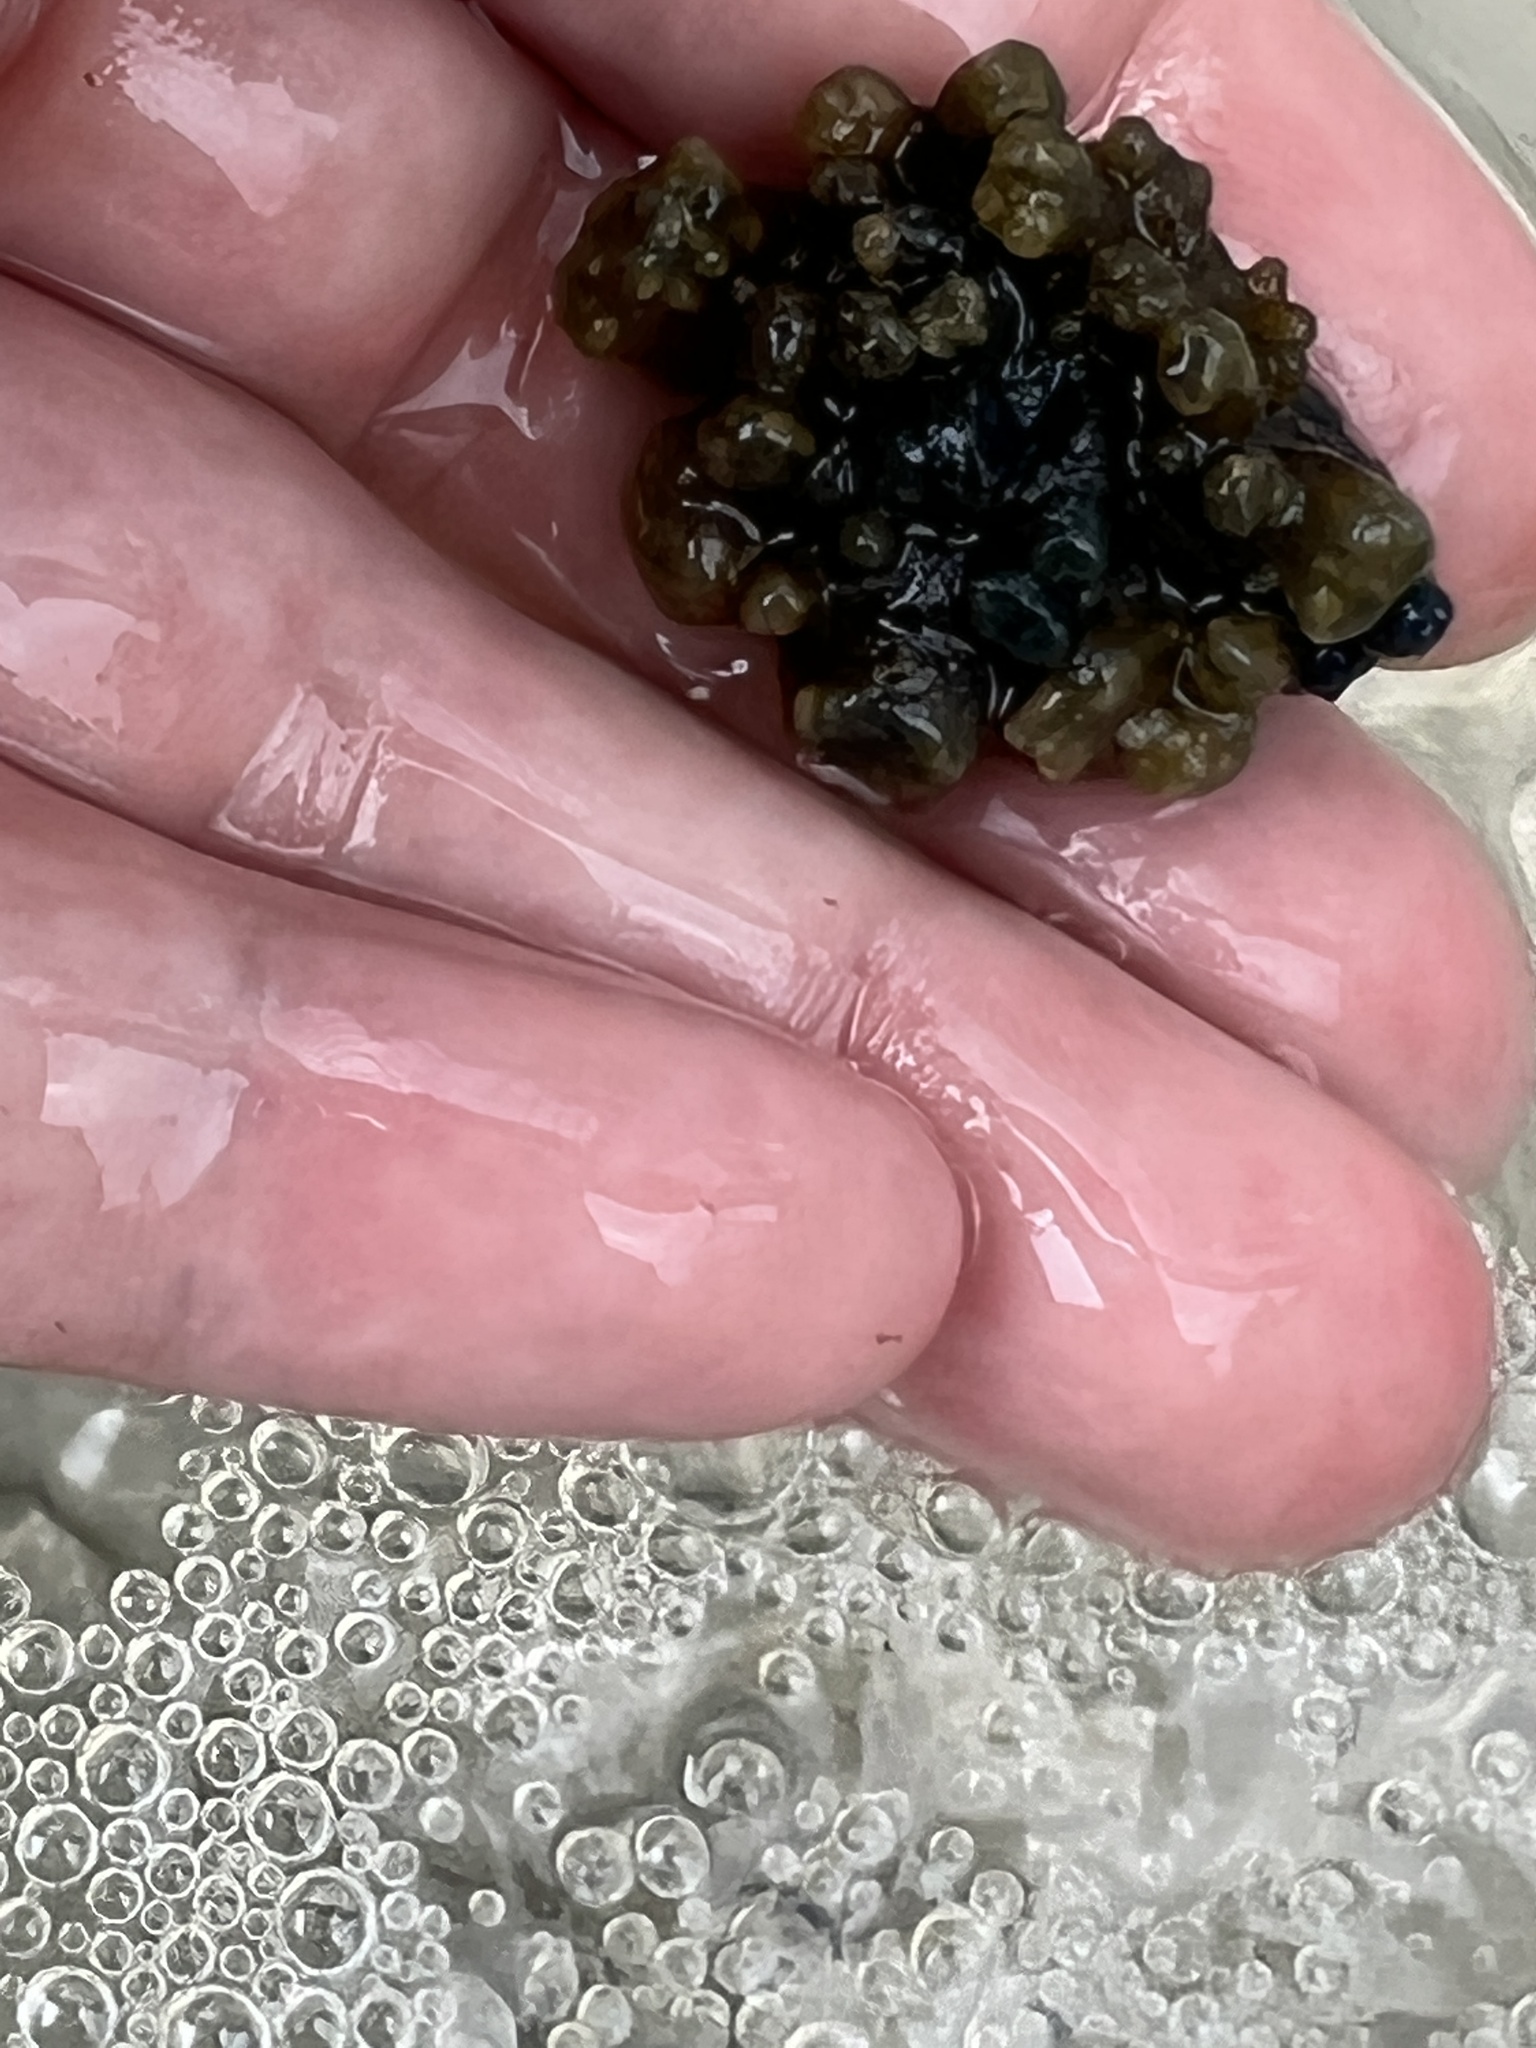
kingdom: Animalia
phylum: Porifera
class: Demospongiae
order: Suberitida
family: Halichondriidae
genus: Hymeniacidon
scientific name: Hymeniacidon caerulea
